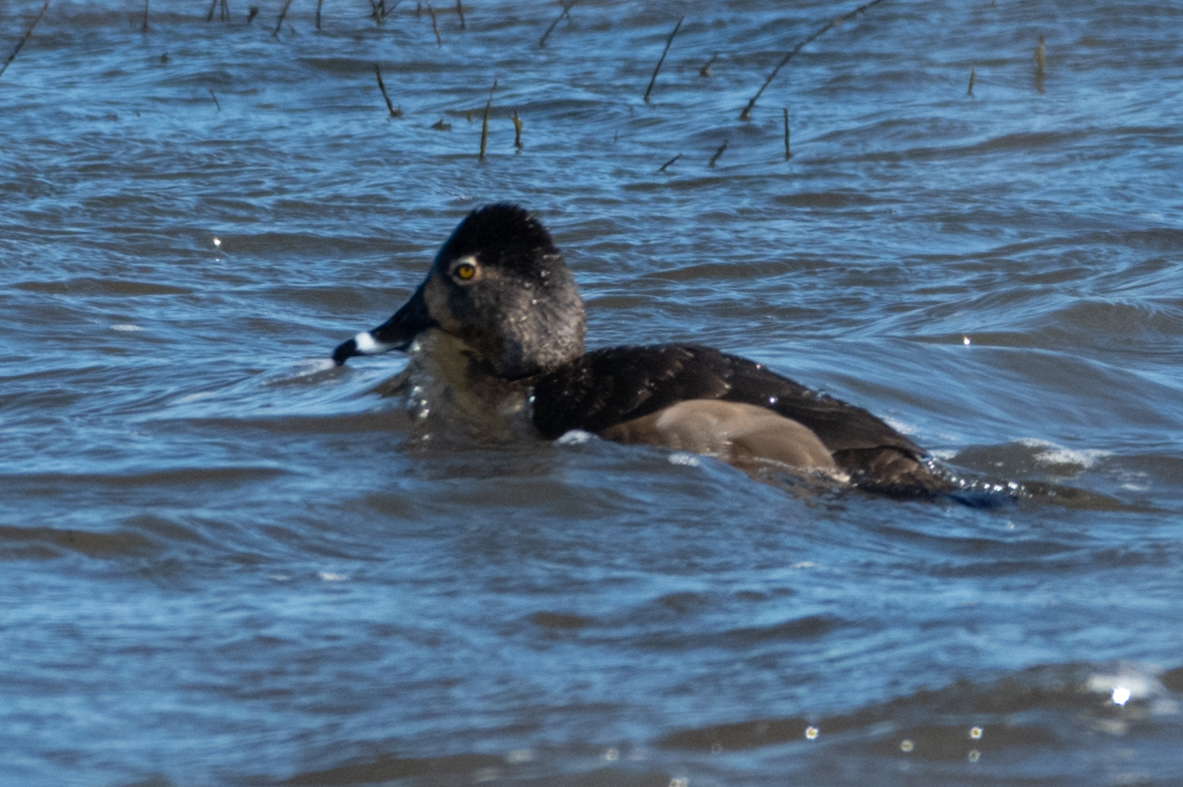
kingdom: Animalia
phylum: Chordata
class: Aves
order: Anseriformes
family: Anatidae
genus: Aythya
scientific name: Aythya collaris
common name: Ring-necked duck
